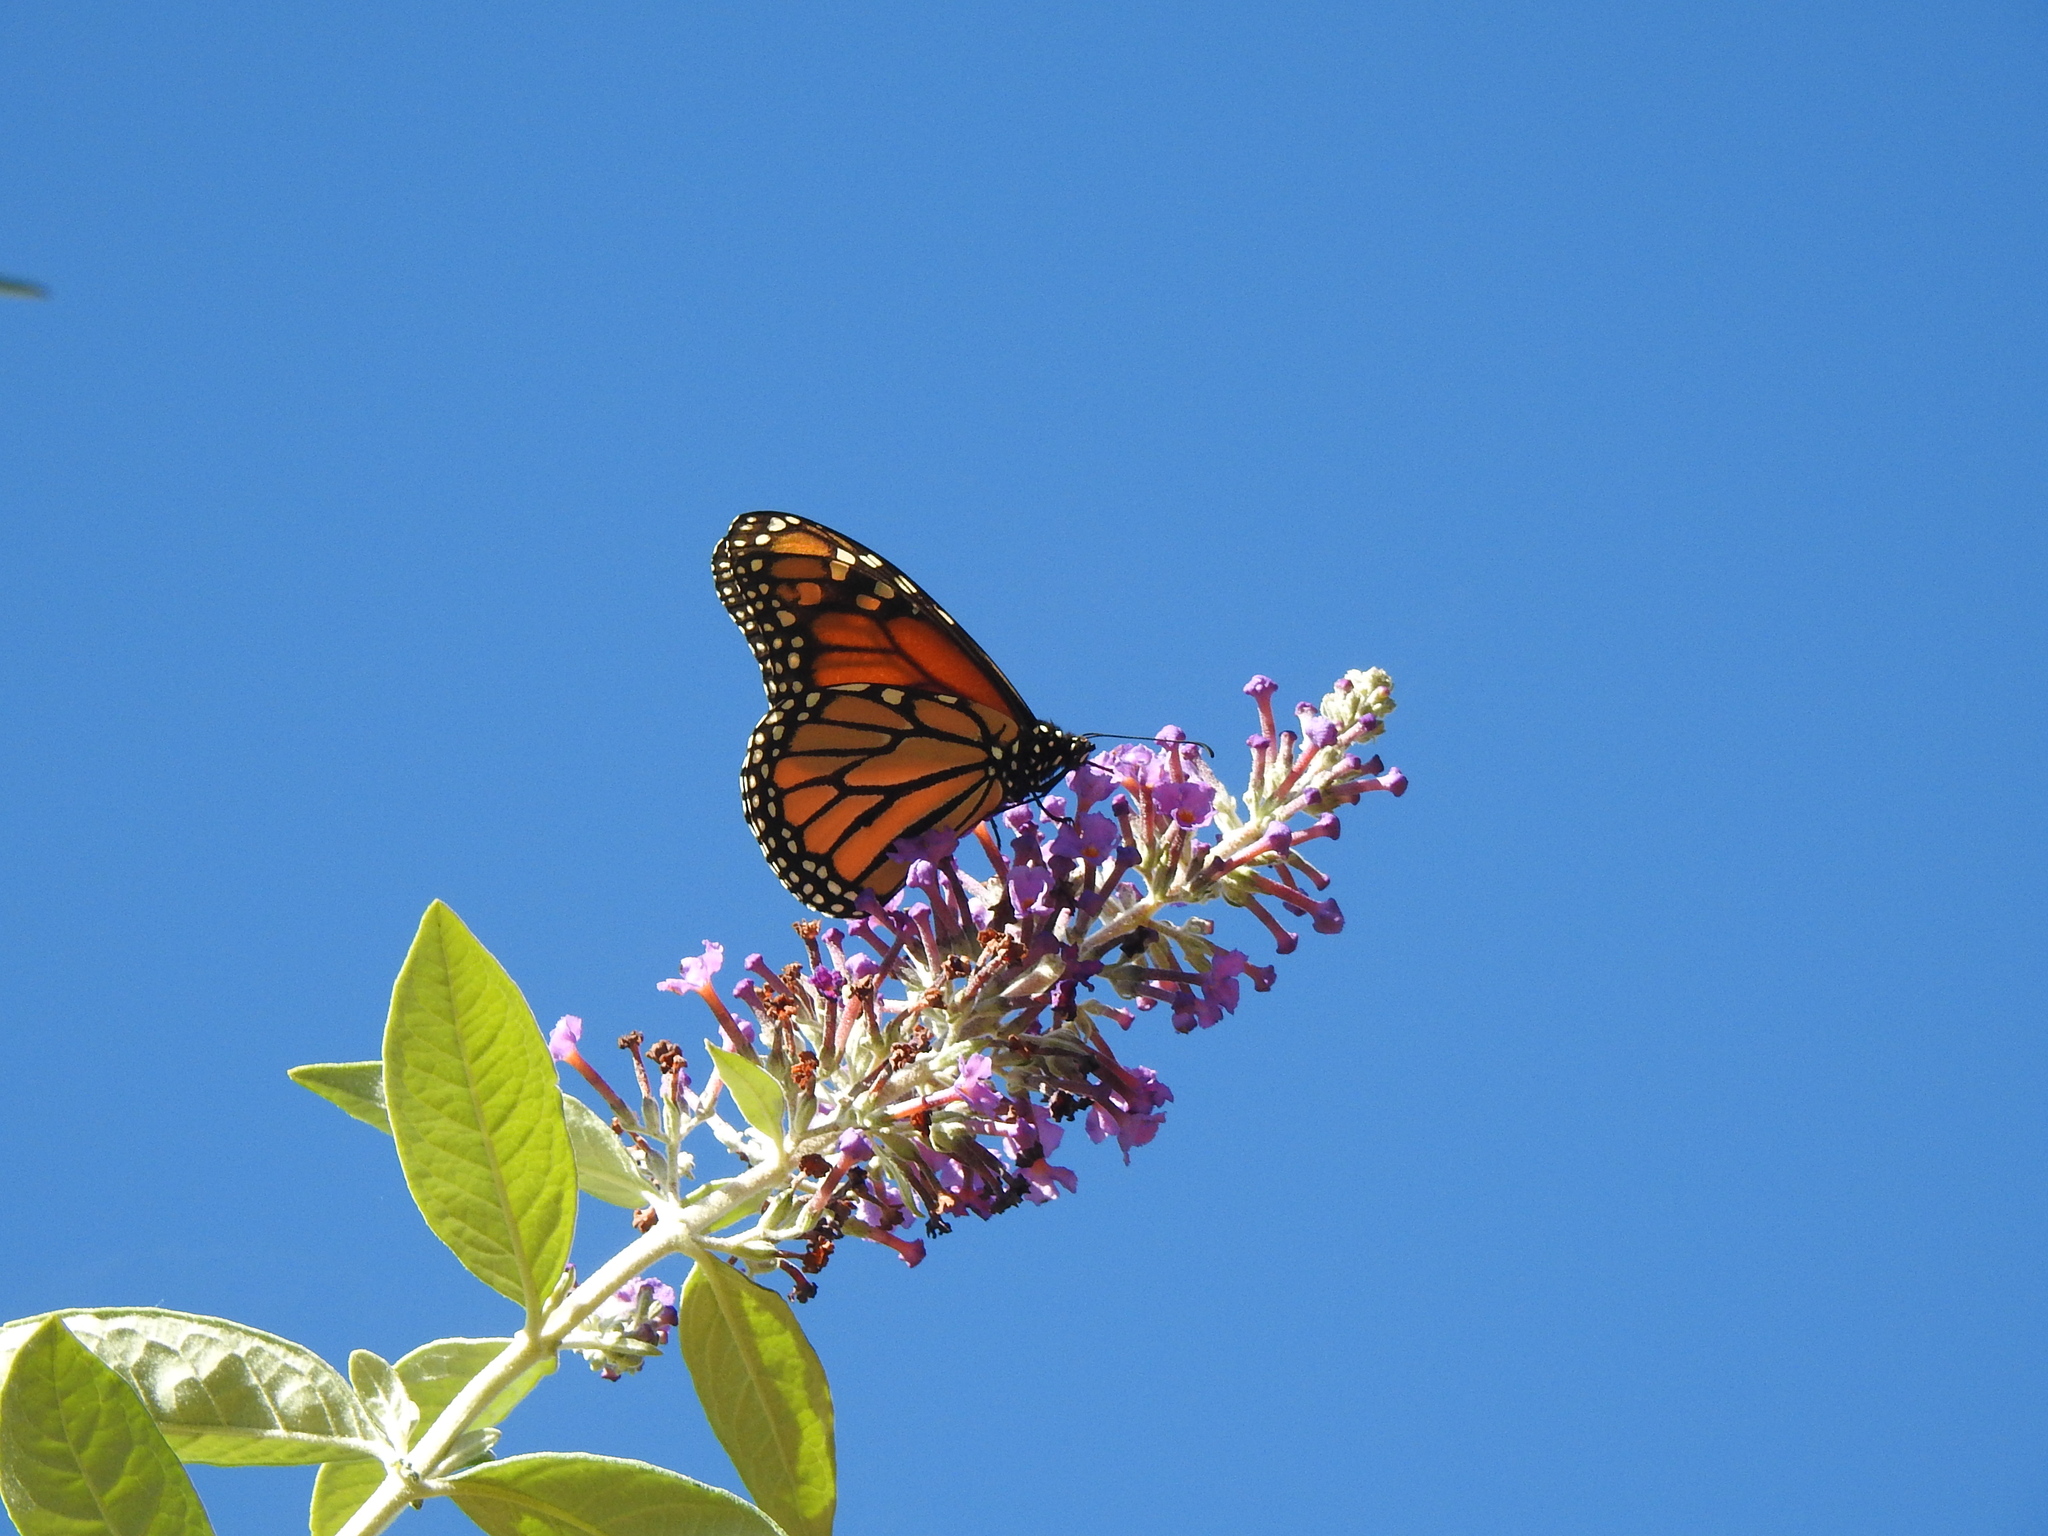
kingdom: Animalia
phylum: Arthropoda
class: Insecta
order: Lepidoptera
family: Nymphalidae
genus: Danaus
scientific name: Danaus plexippus
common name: Monarch
